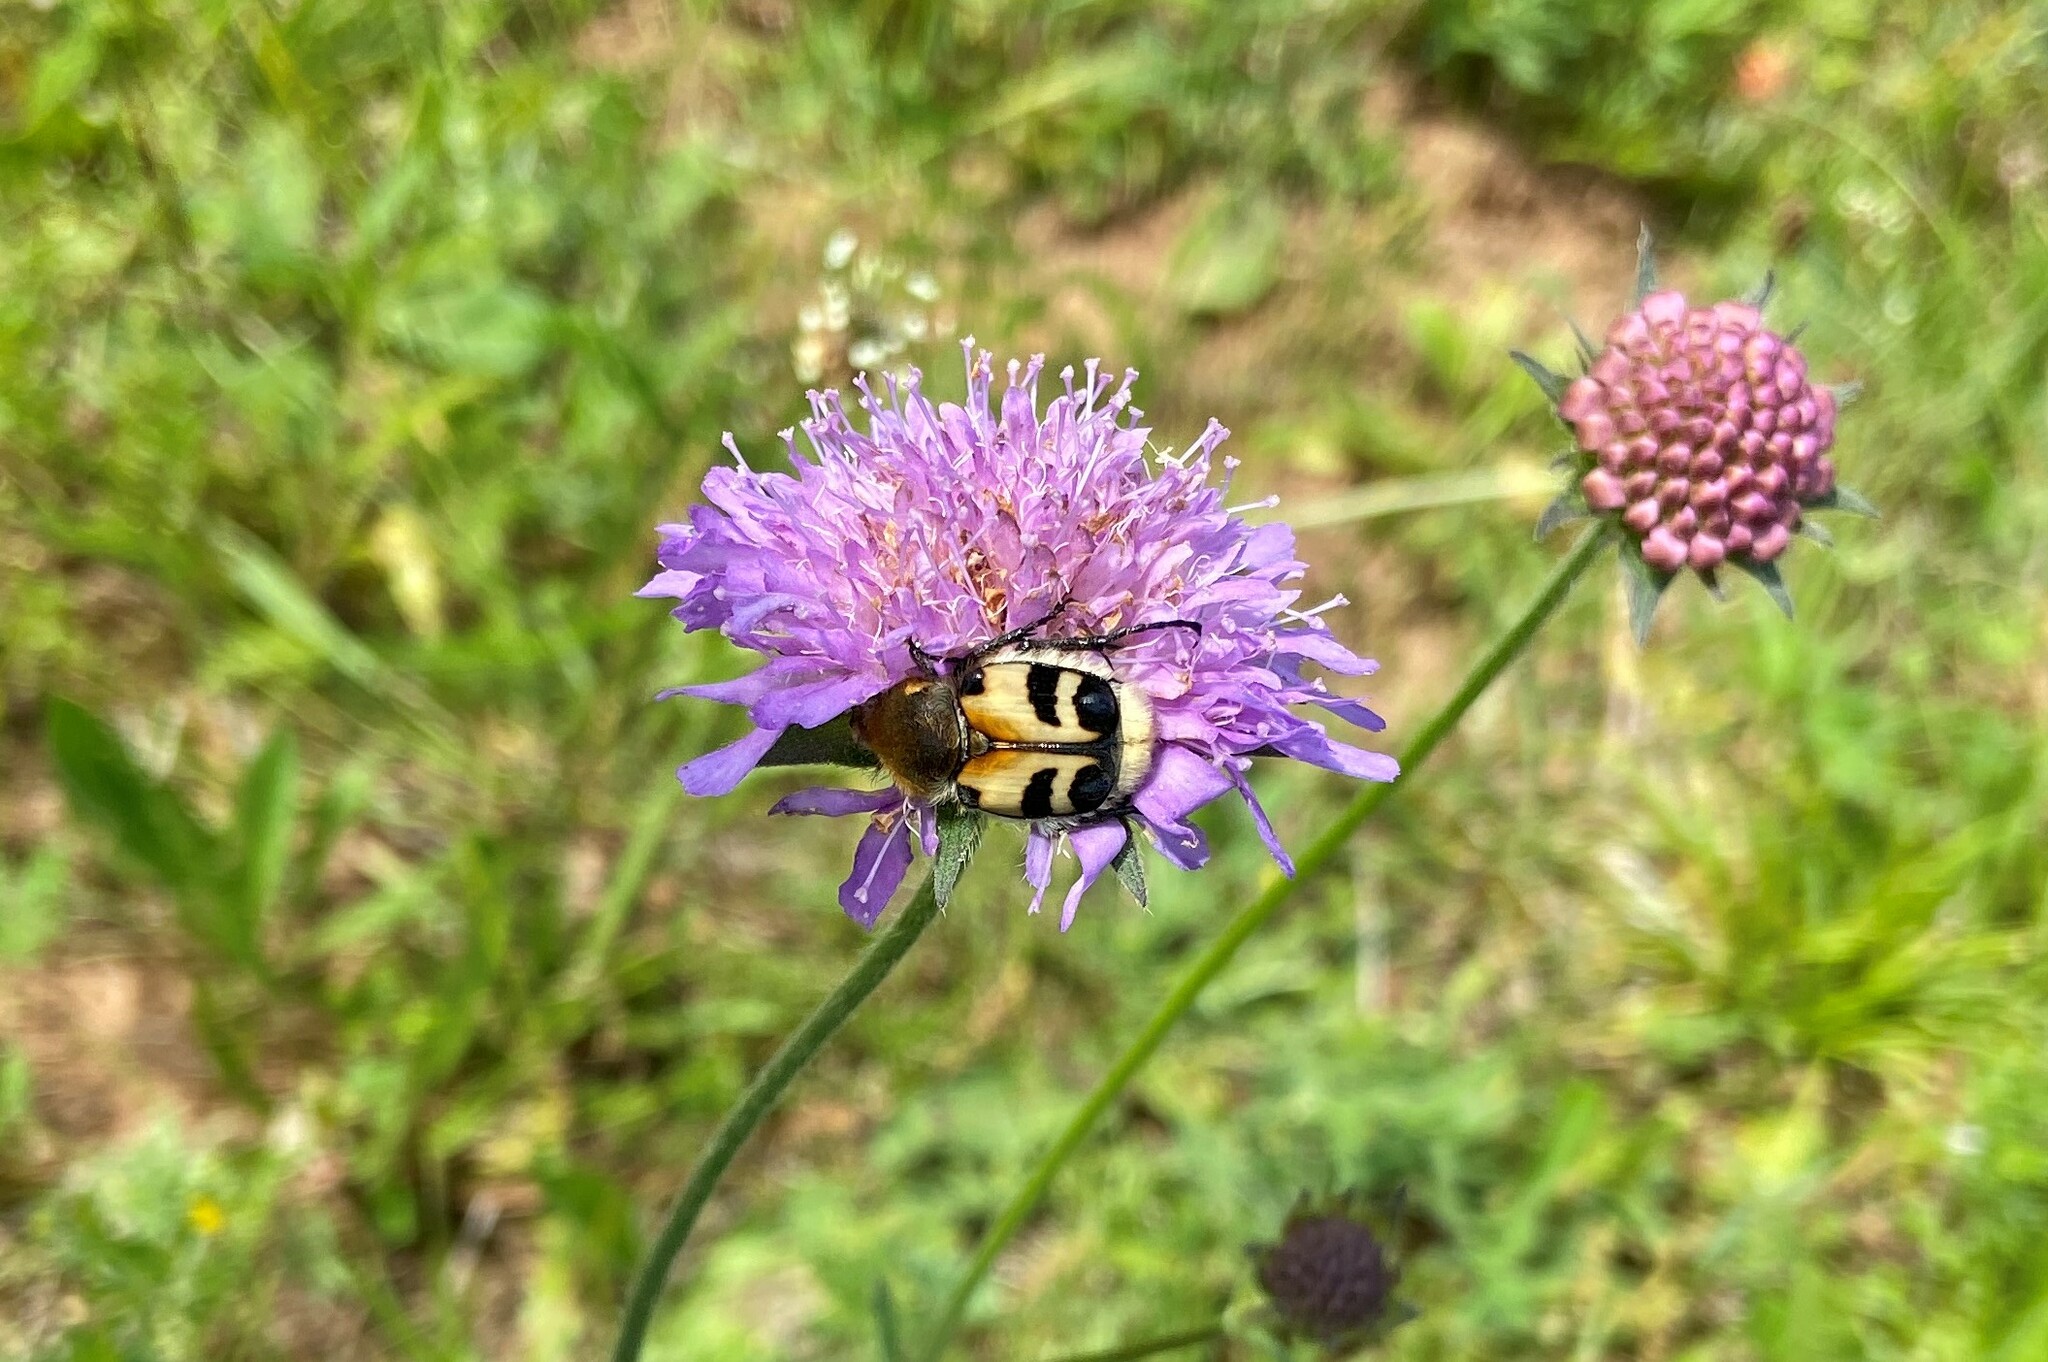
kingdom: Animalia
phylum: Arthropoda
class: Insecta
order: Coleoptera
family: Scarabaeidae
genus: Trichius
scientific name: Trichius fasciatus
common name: Bee beetle
